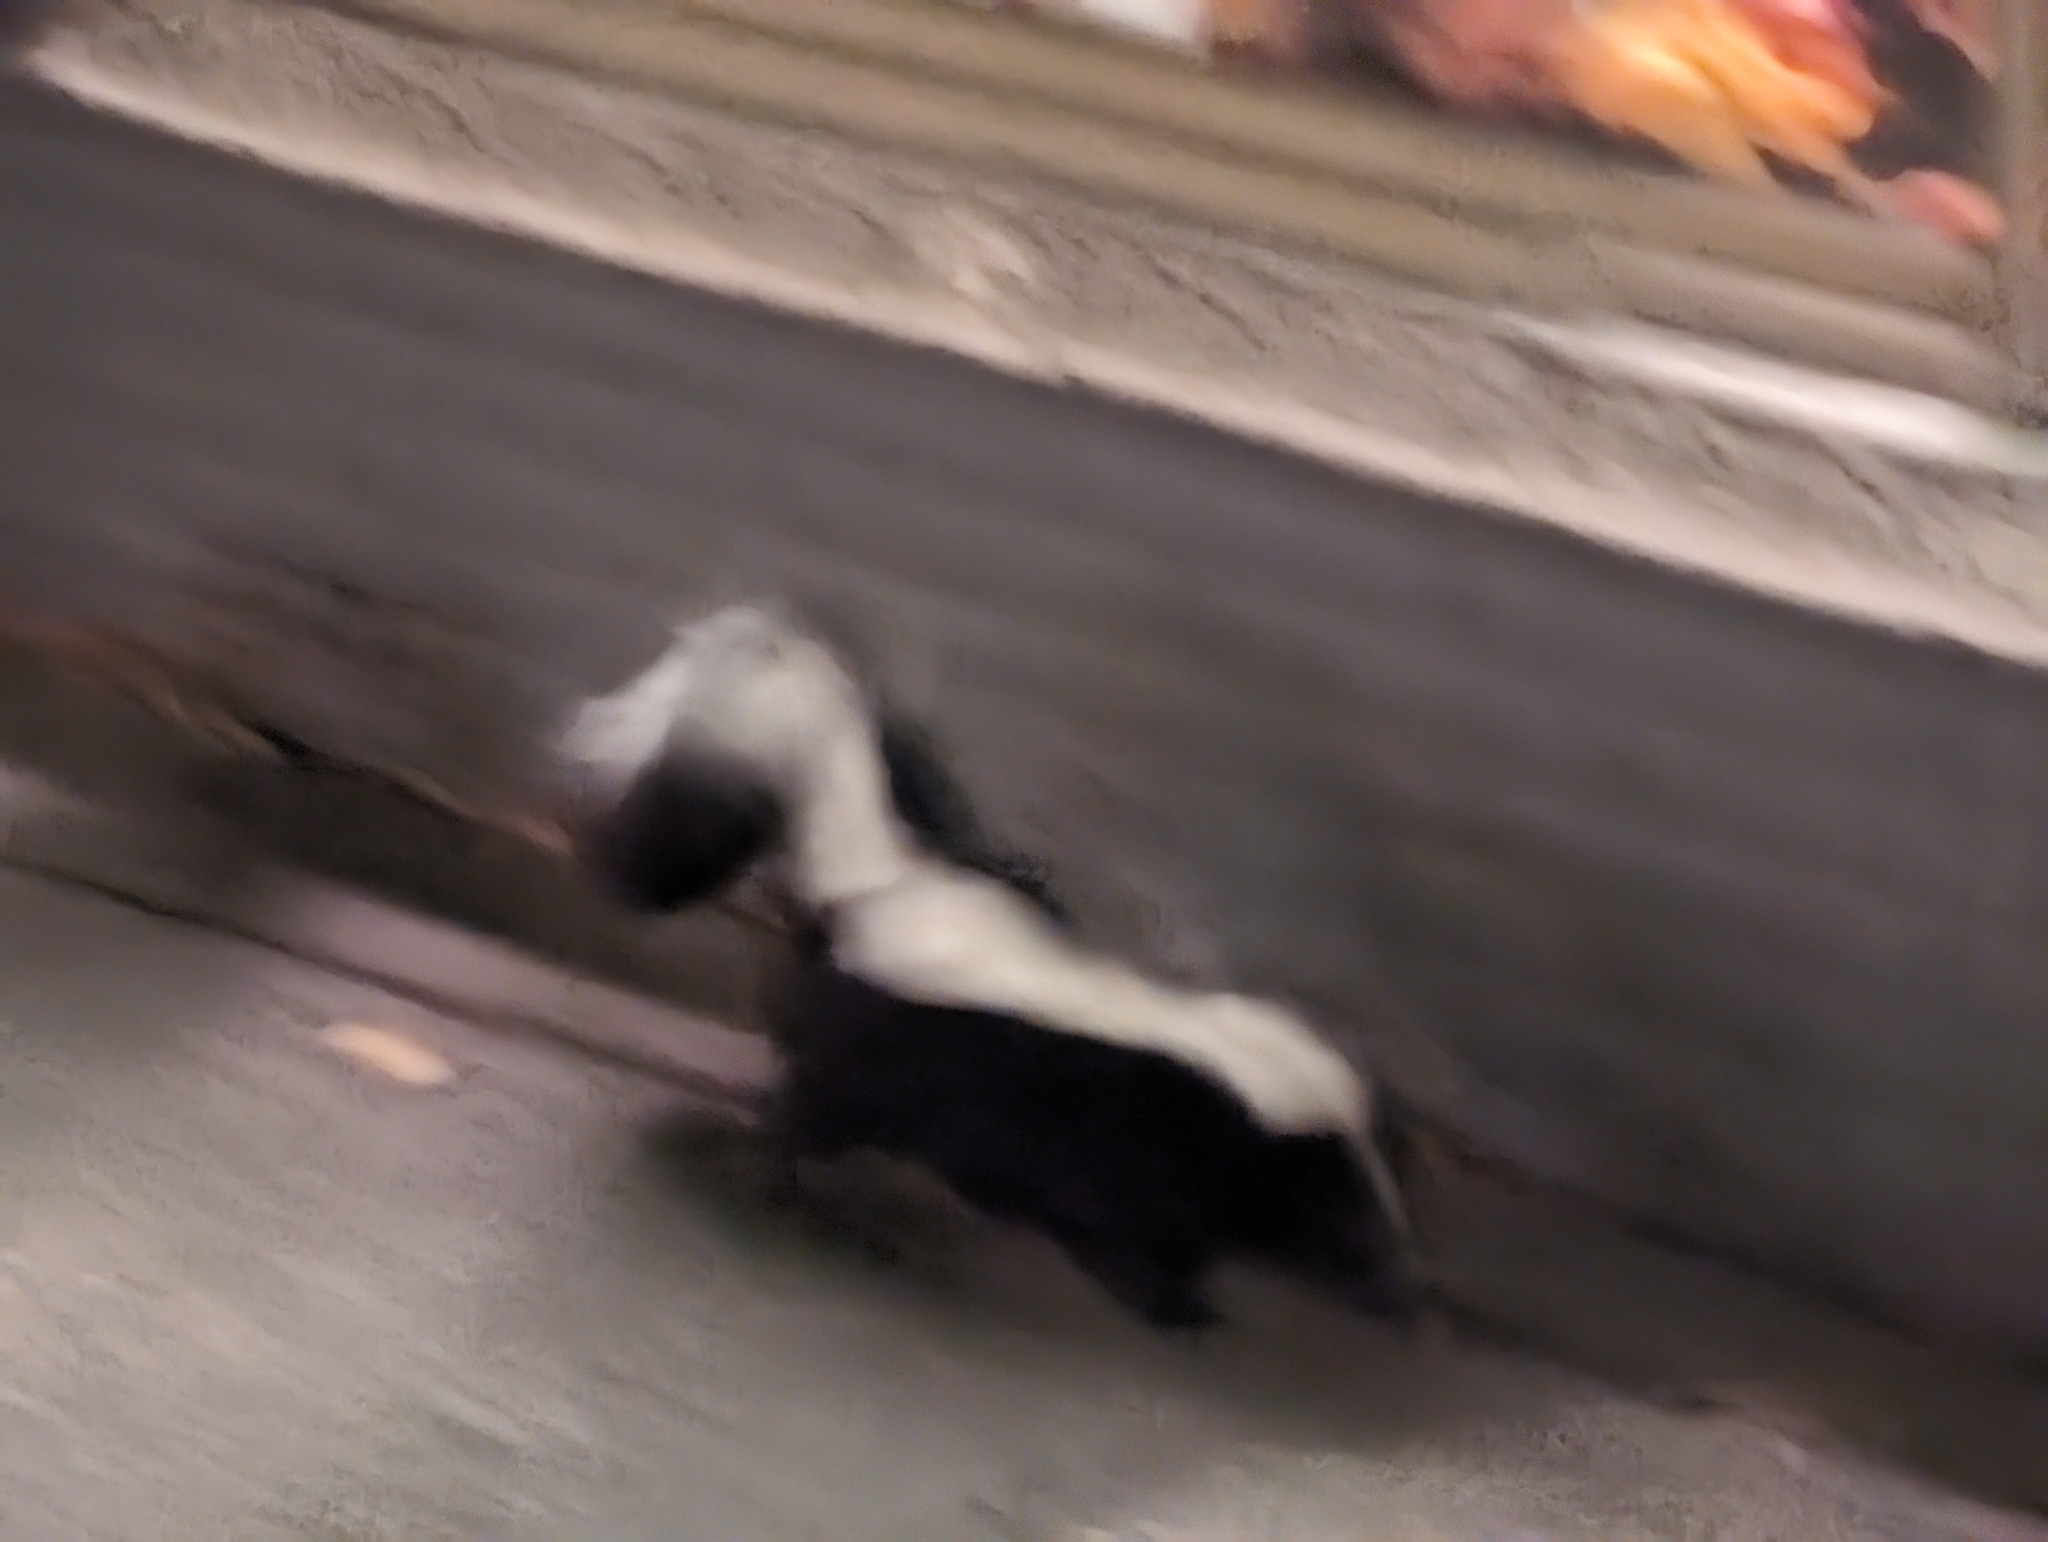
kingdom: Animalia
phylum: Chordata
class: Mammalia
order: Carnivora
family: Mephitidae
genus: Mephitis
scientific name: Mephitis mephitis
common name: Striped skunk
